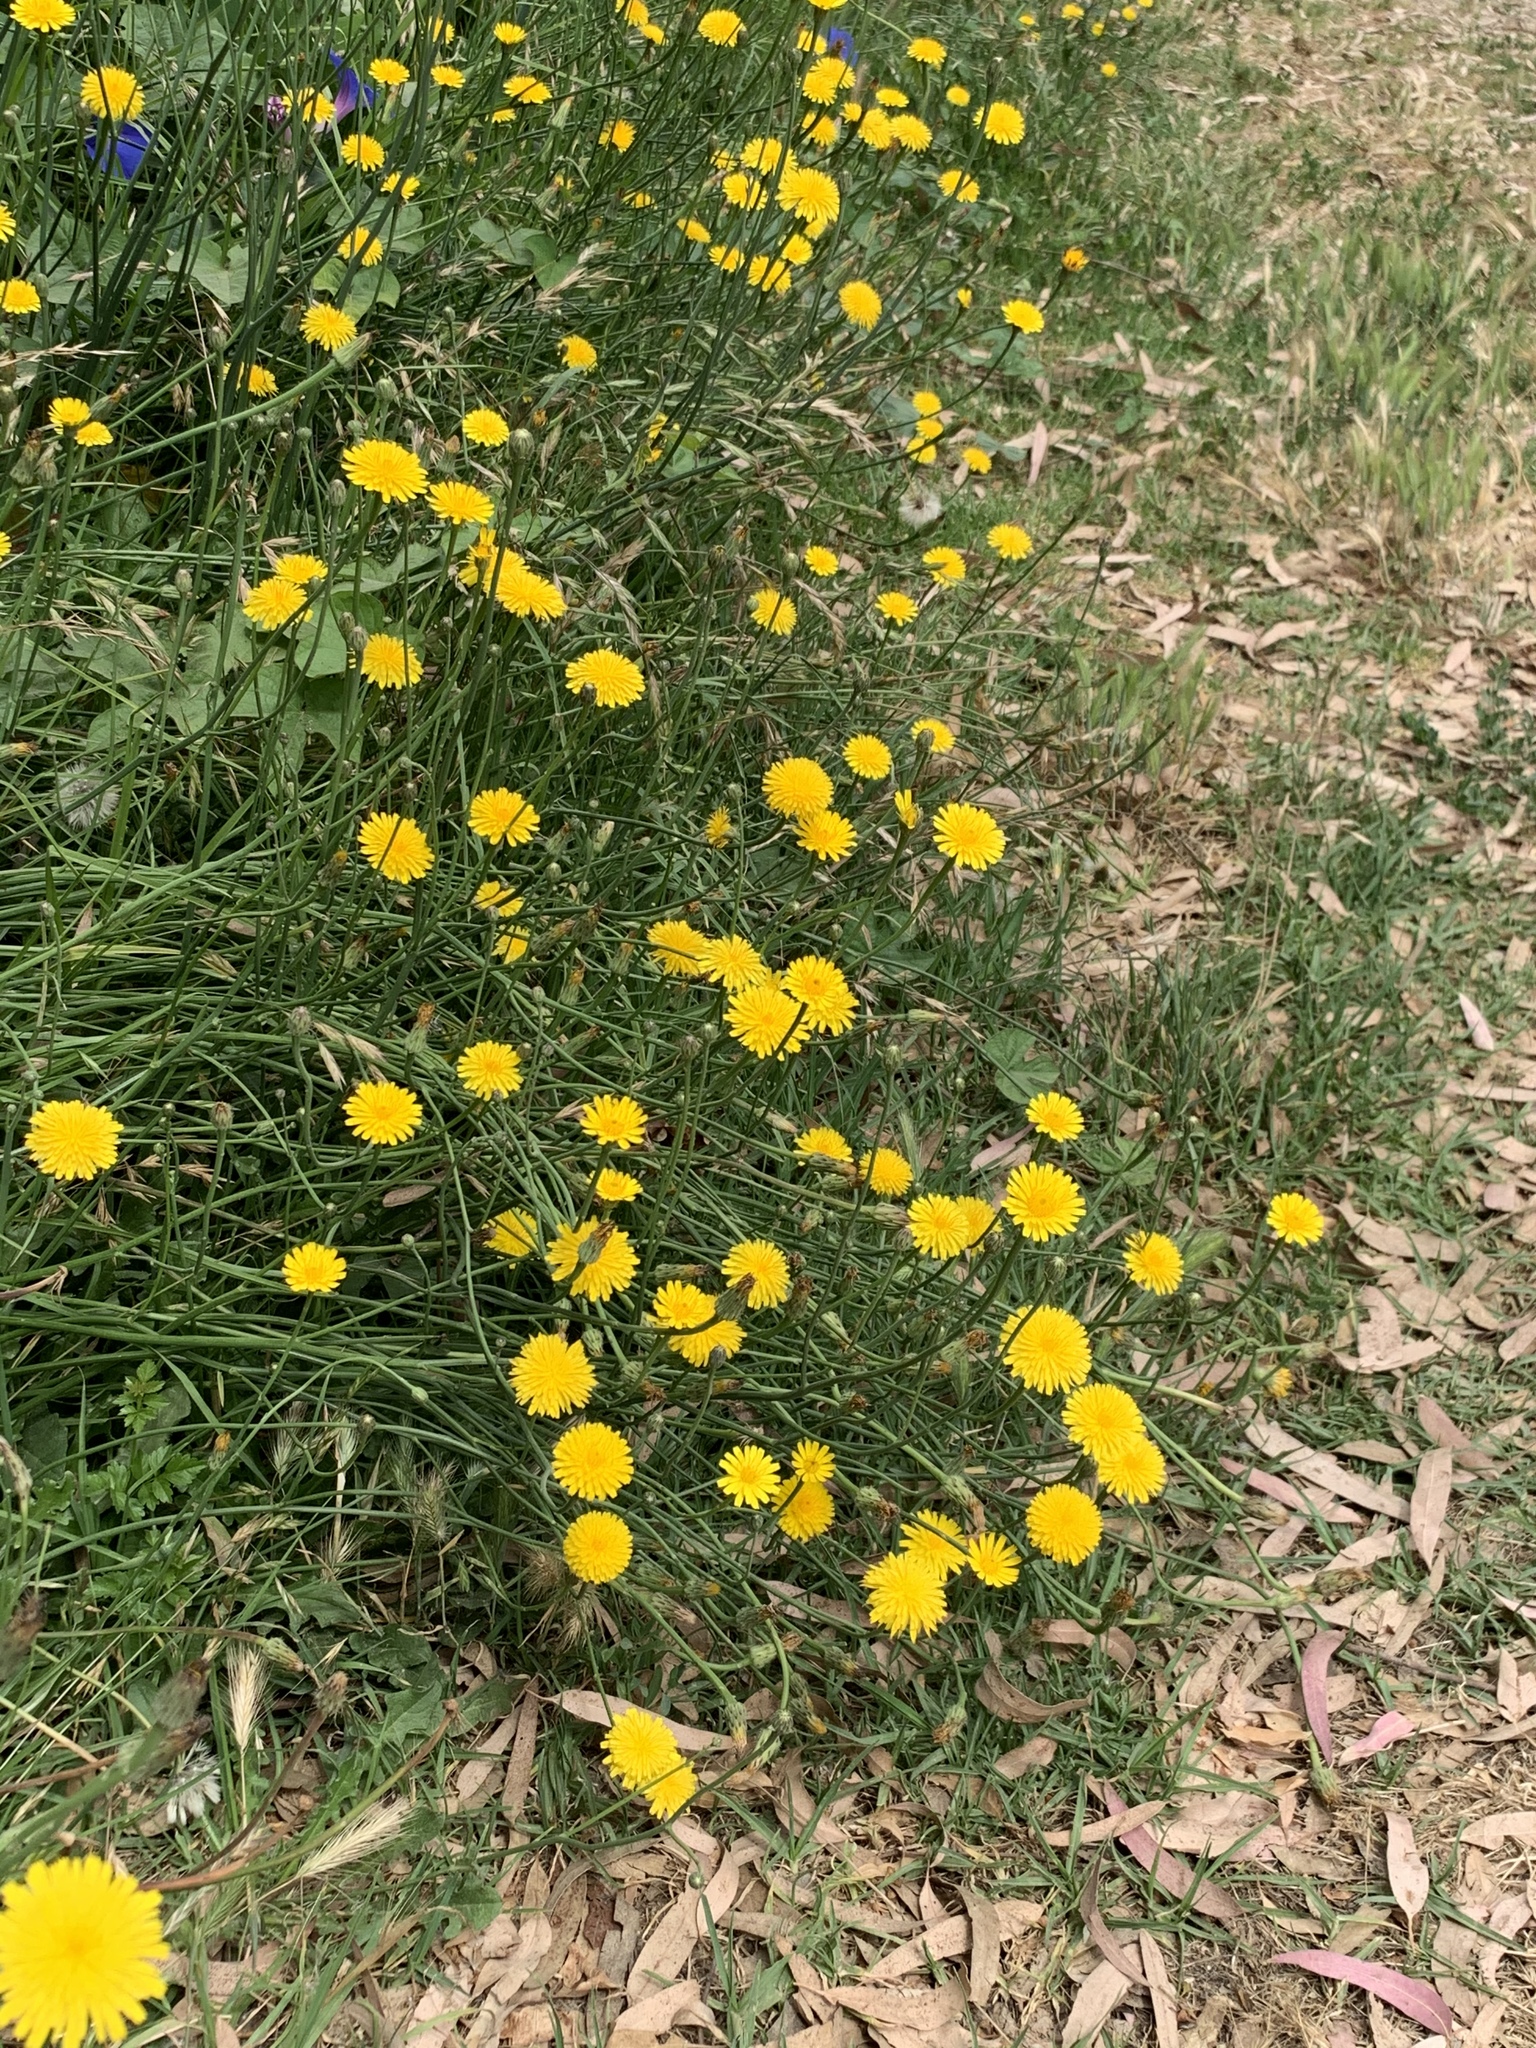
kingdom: Plantae
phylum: Tracheophyta
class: Magnoliopsida
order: Asterales
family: Asteraceae
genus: Hypochaeris
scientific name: Hypochaeris radicata
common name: Flatweed
